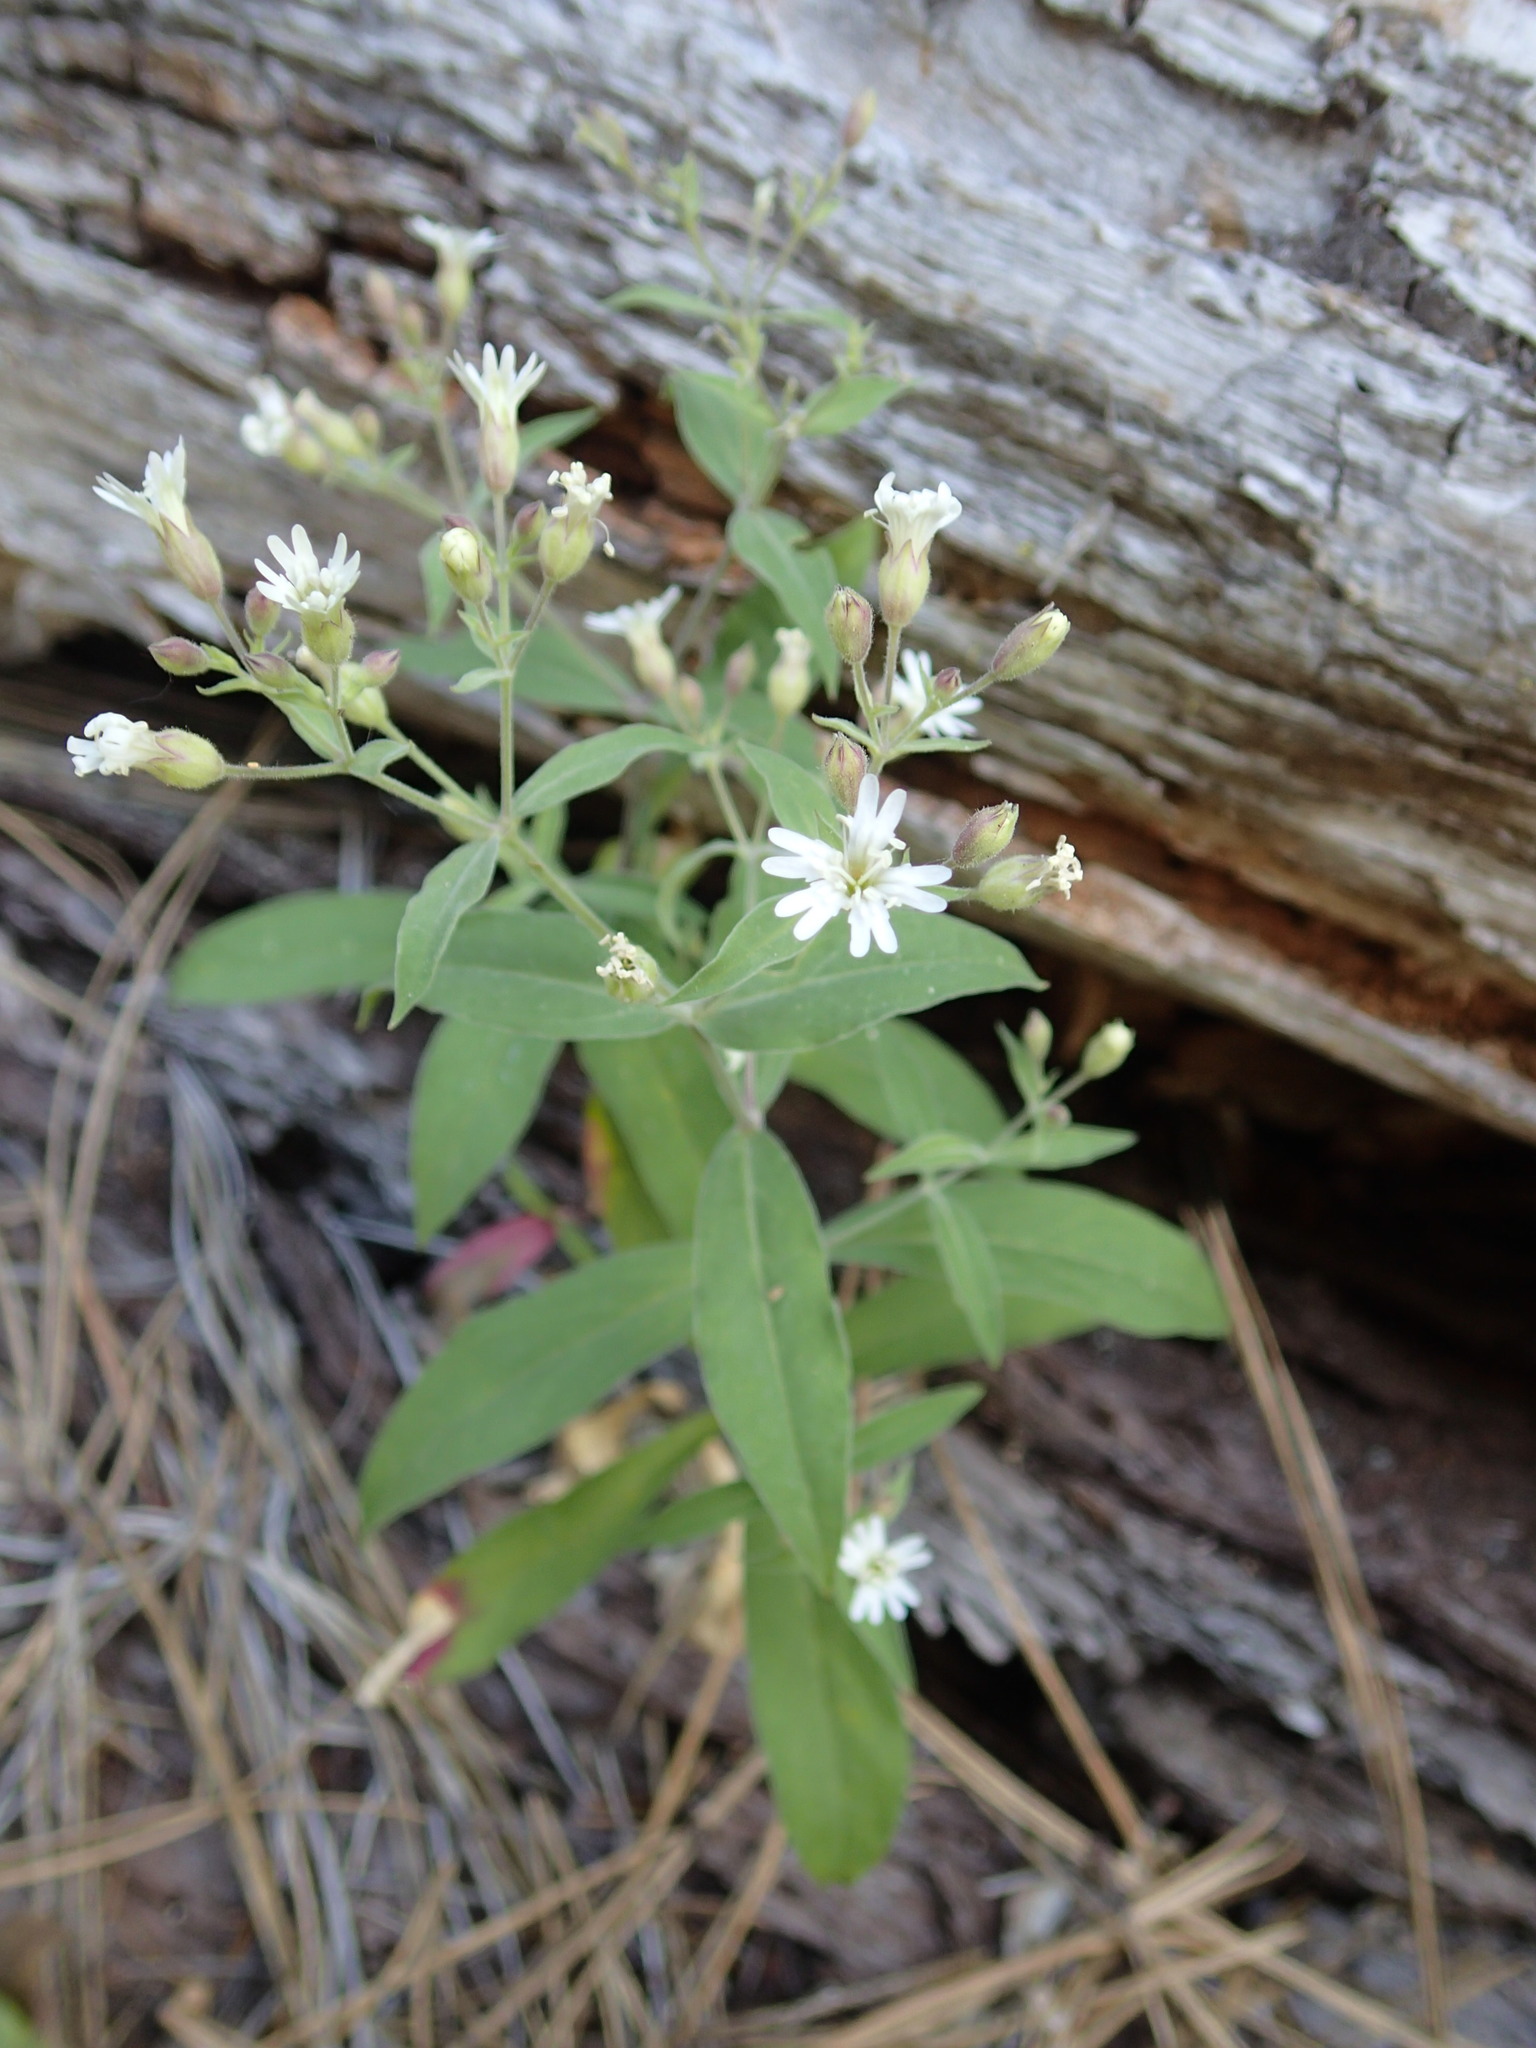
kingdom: Plantae
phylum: Tracheophyta
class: Magnoliopsida
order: Caryophyllales
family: Caryophyllaceae
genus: Silene
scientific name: Silene menziesii
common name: Menzies's catchfly
